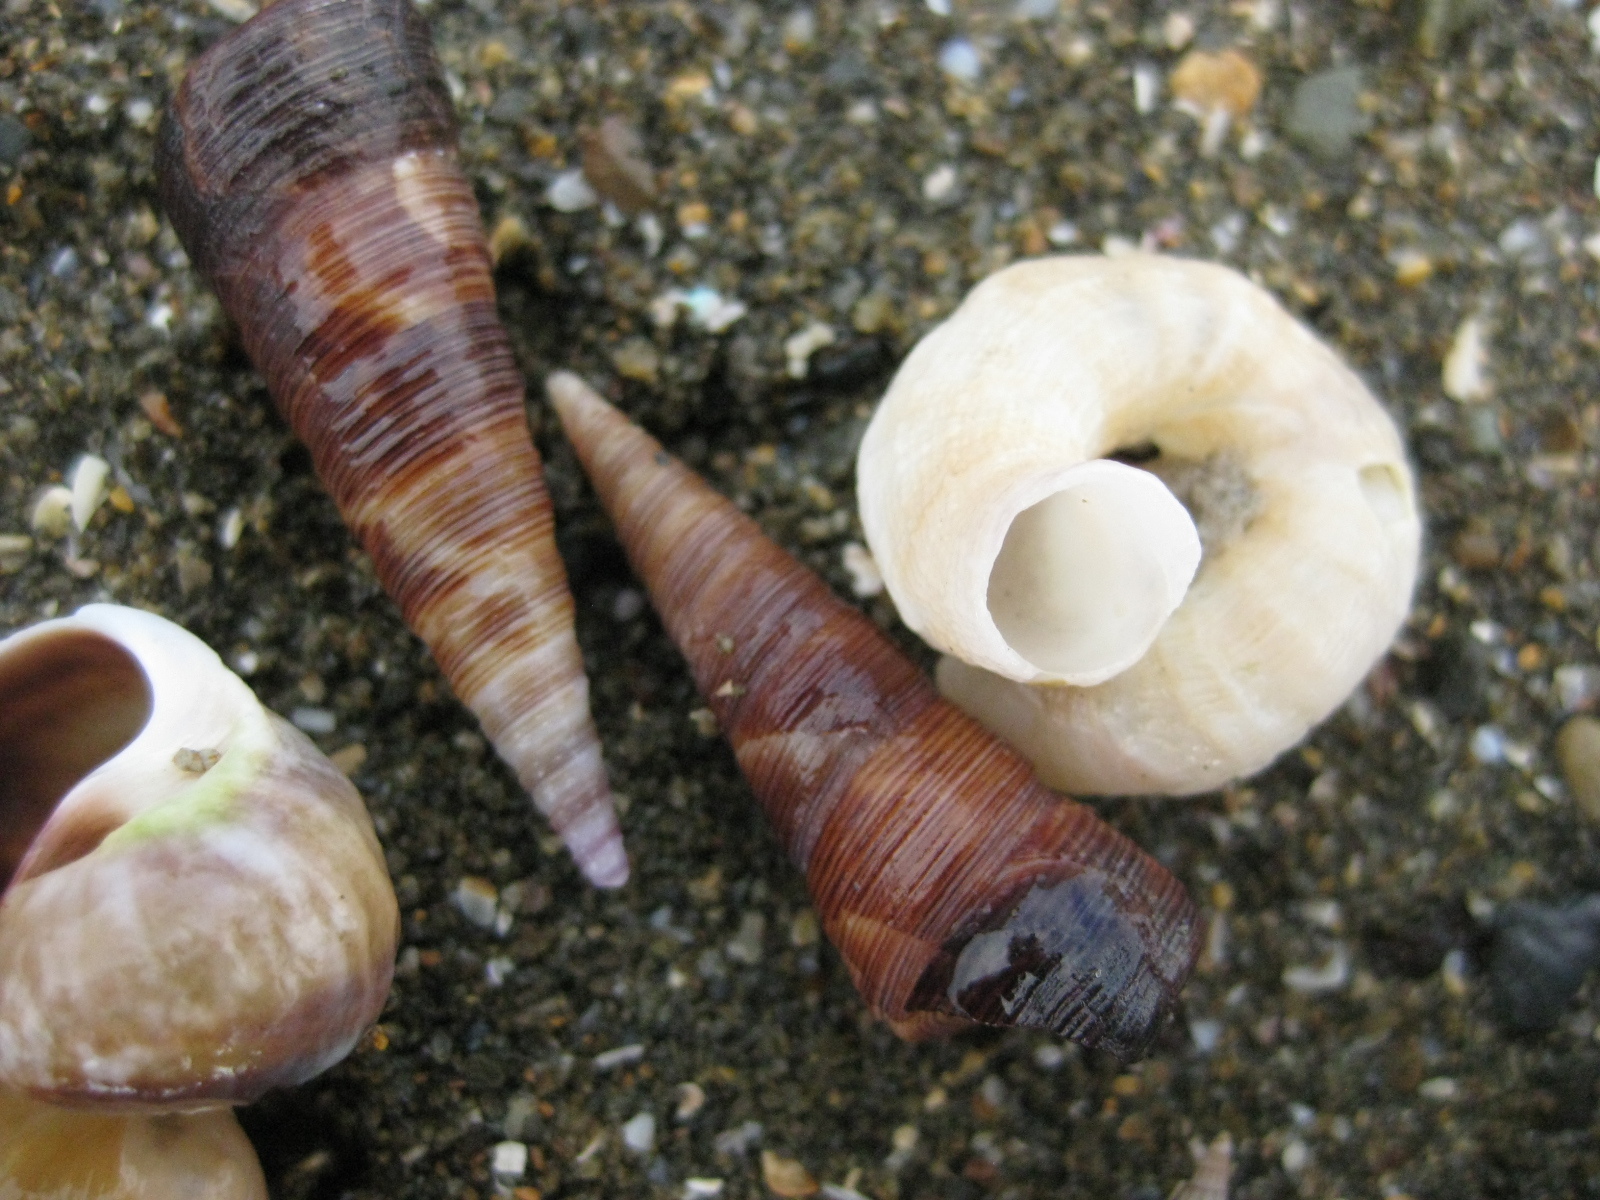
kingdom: Animalia
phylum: Mollusca
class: Gastropoda
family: Turritellidae
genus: Maoricolpus
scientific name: Maoricolpus roseus
